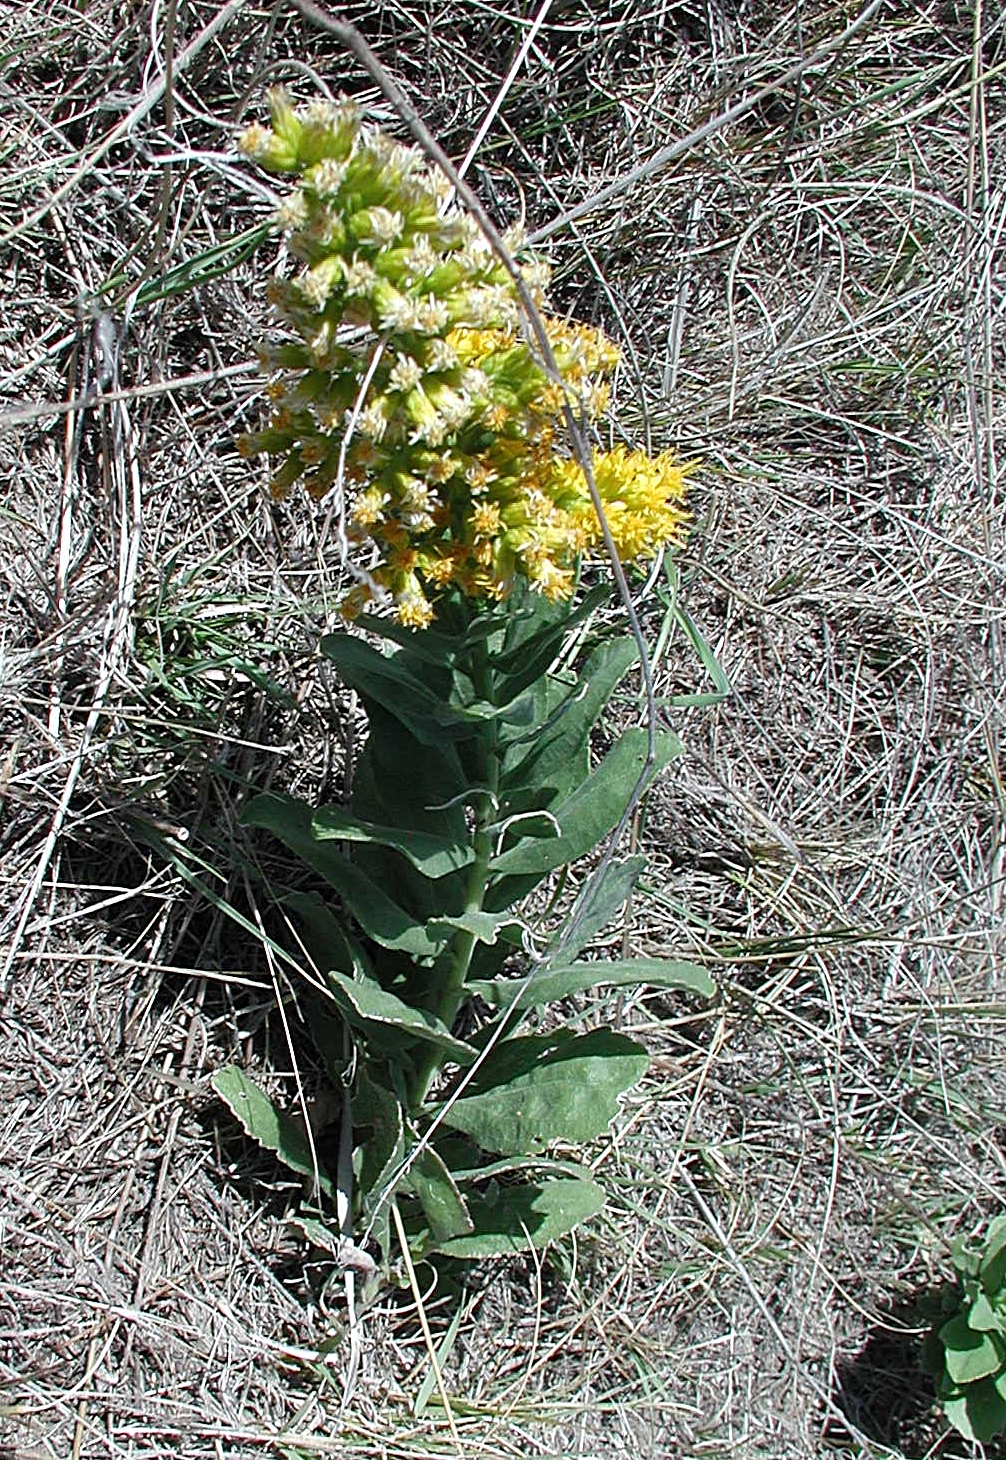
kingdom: Plantae
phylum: Tracheophyta
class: Magnoliopsida
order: Asterales
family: Asteraceae
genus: Solidago
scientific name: Solidago rigida
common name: Rigid goldenrod
